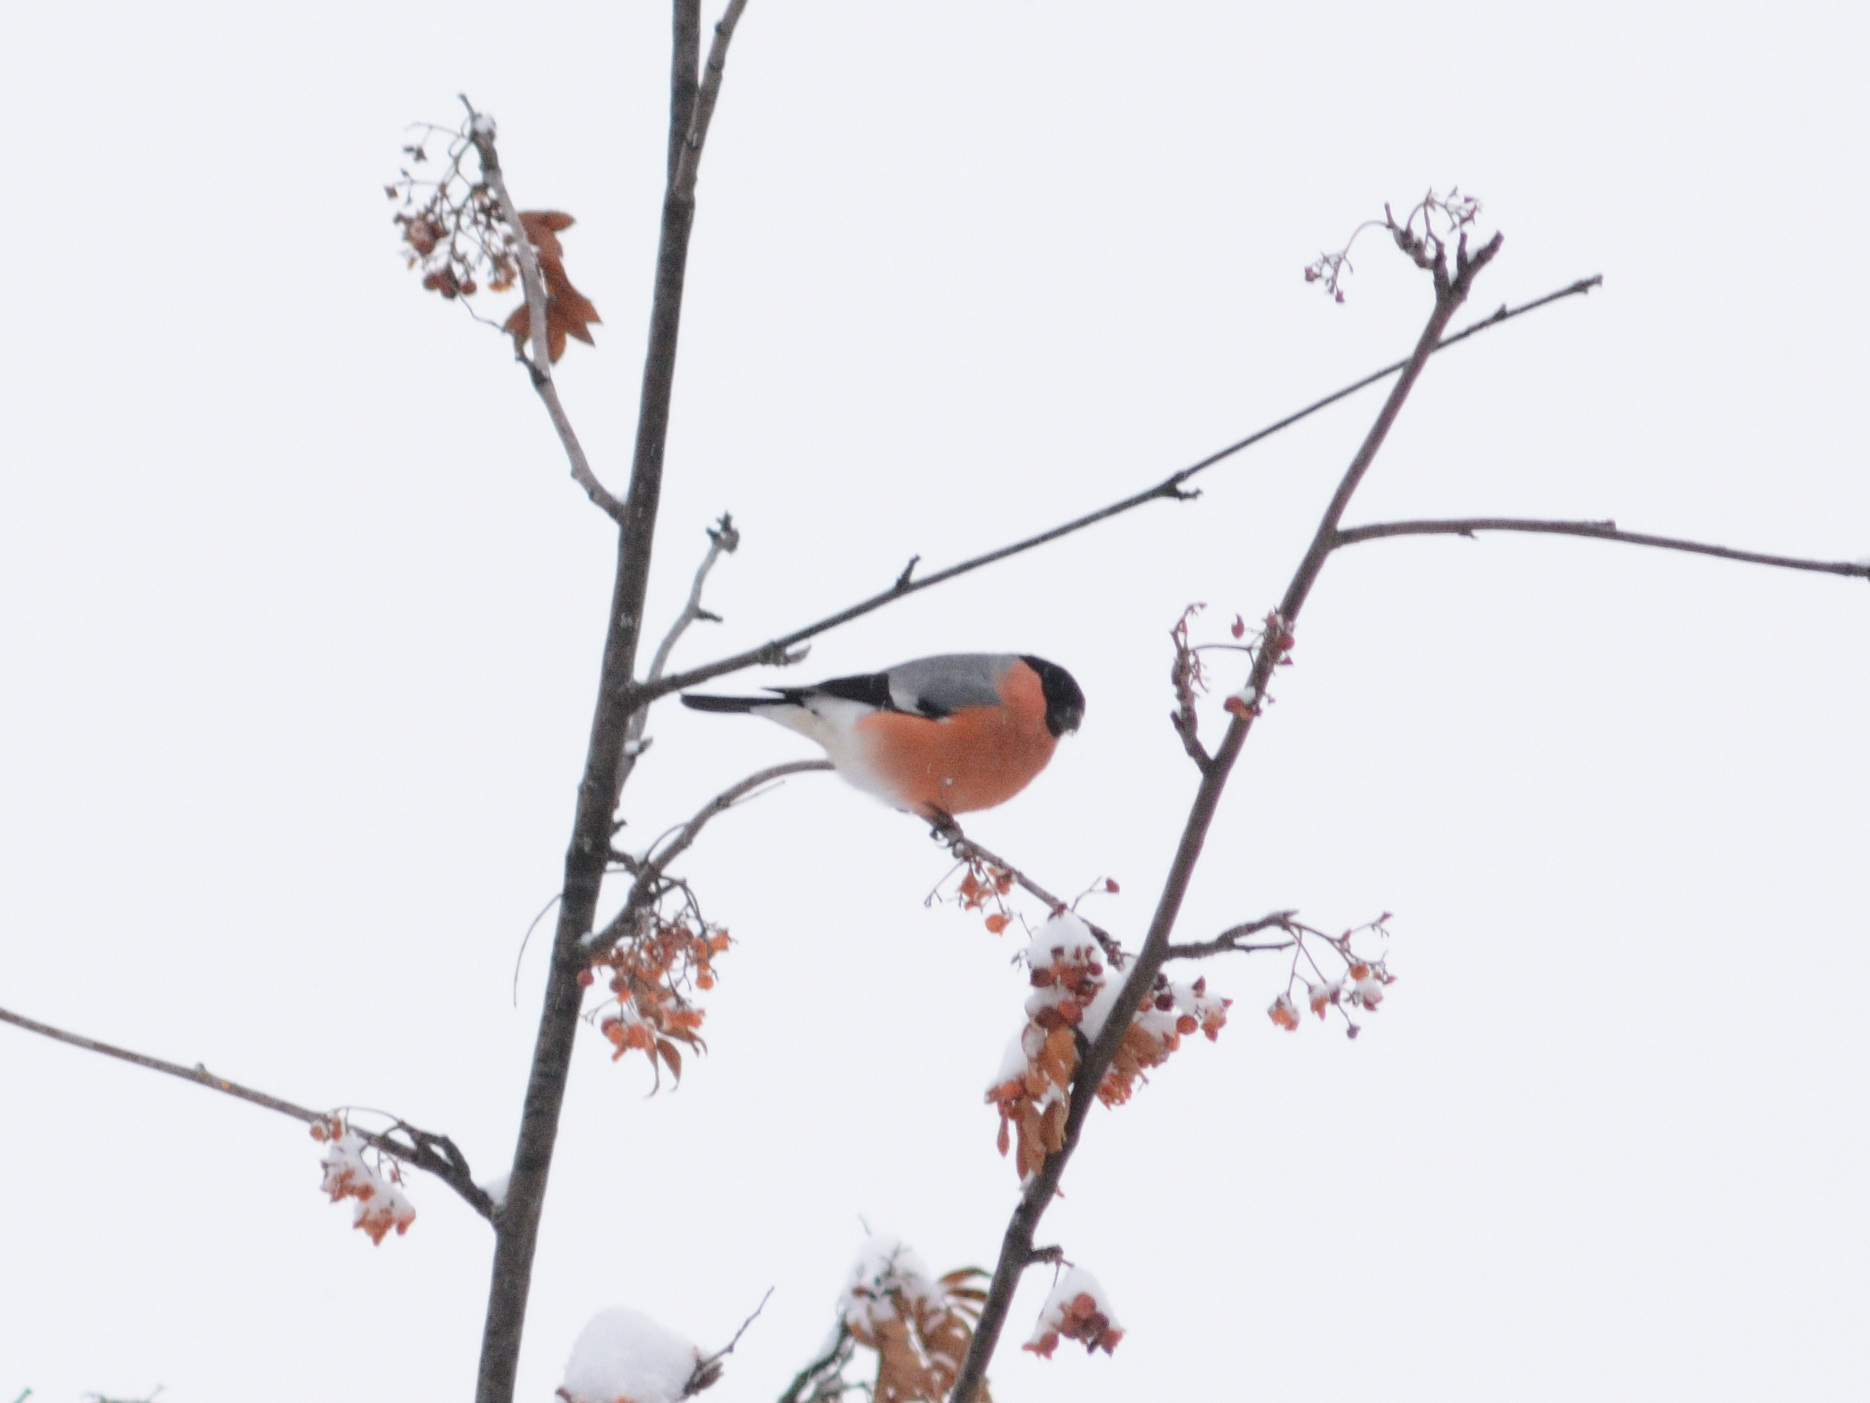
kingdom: Animalia
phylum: Chordata
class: Aves
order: Passeriformes
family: Fringillidae
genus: Pyrrhula
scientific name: Pyrrhula pyrrhula
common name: Eurasian bullfinch
